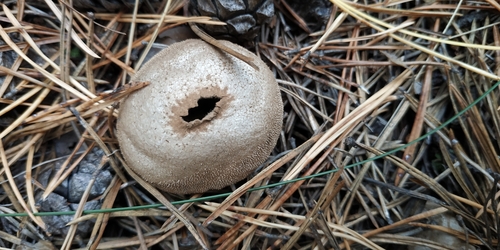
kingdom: Fungi
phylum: Basidiomycota
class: Agaricomycetes
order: Agaricales
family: Lycoperdaceae
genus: Lycoperdon
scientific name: Lycoperdon perlatum
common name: Common puffball
